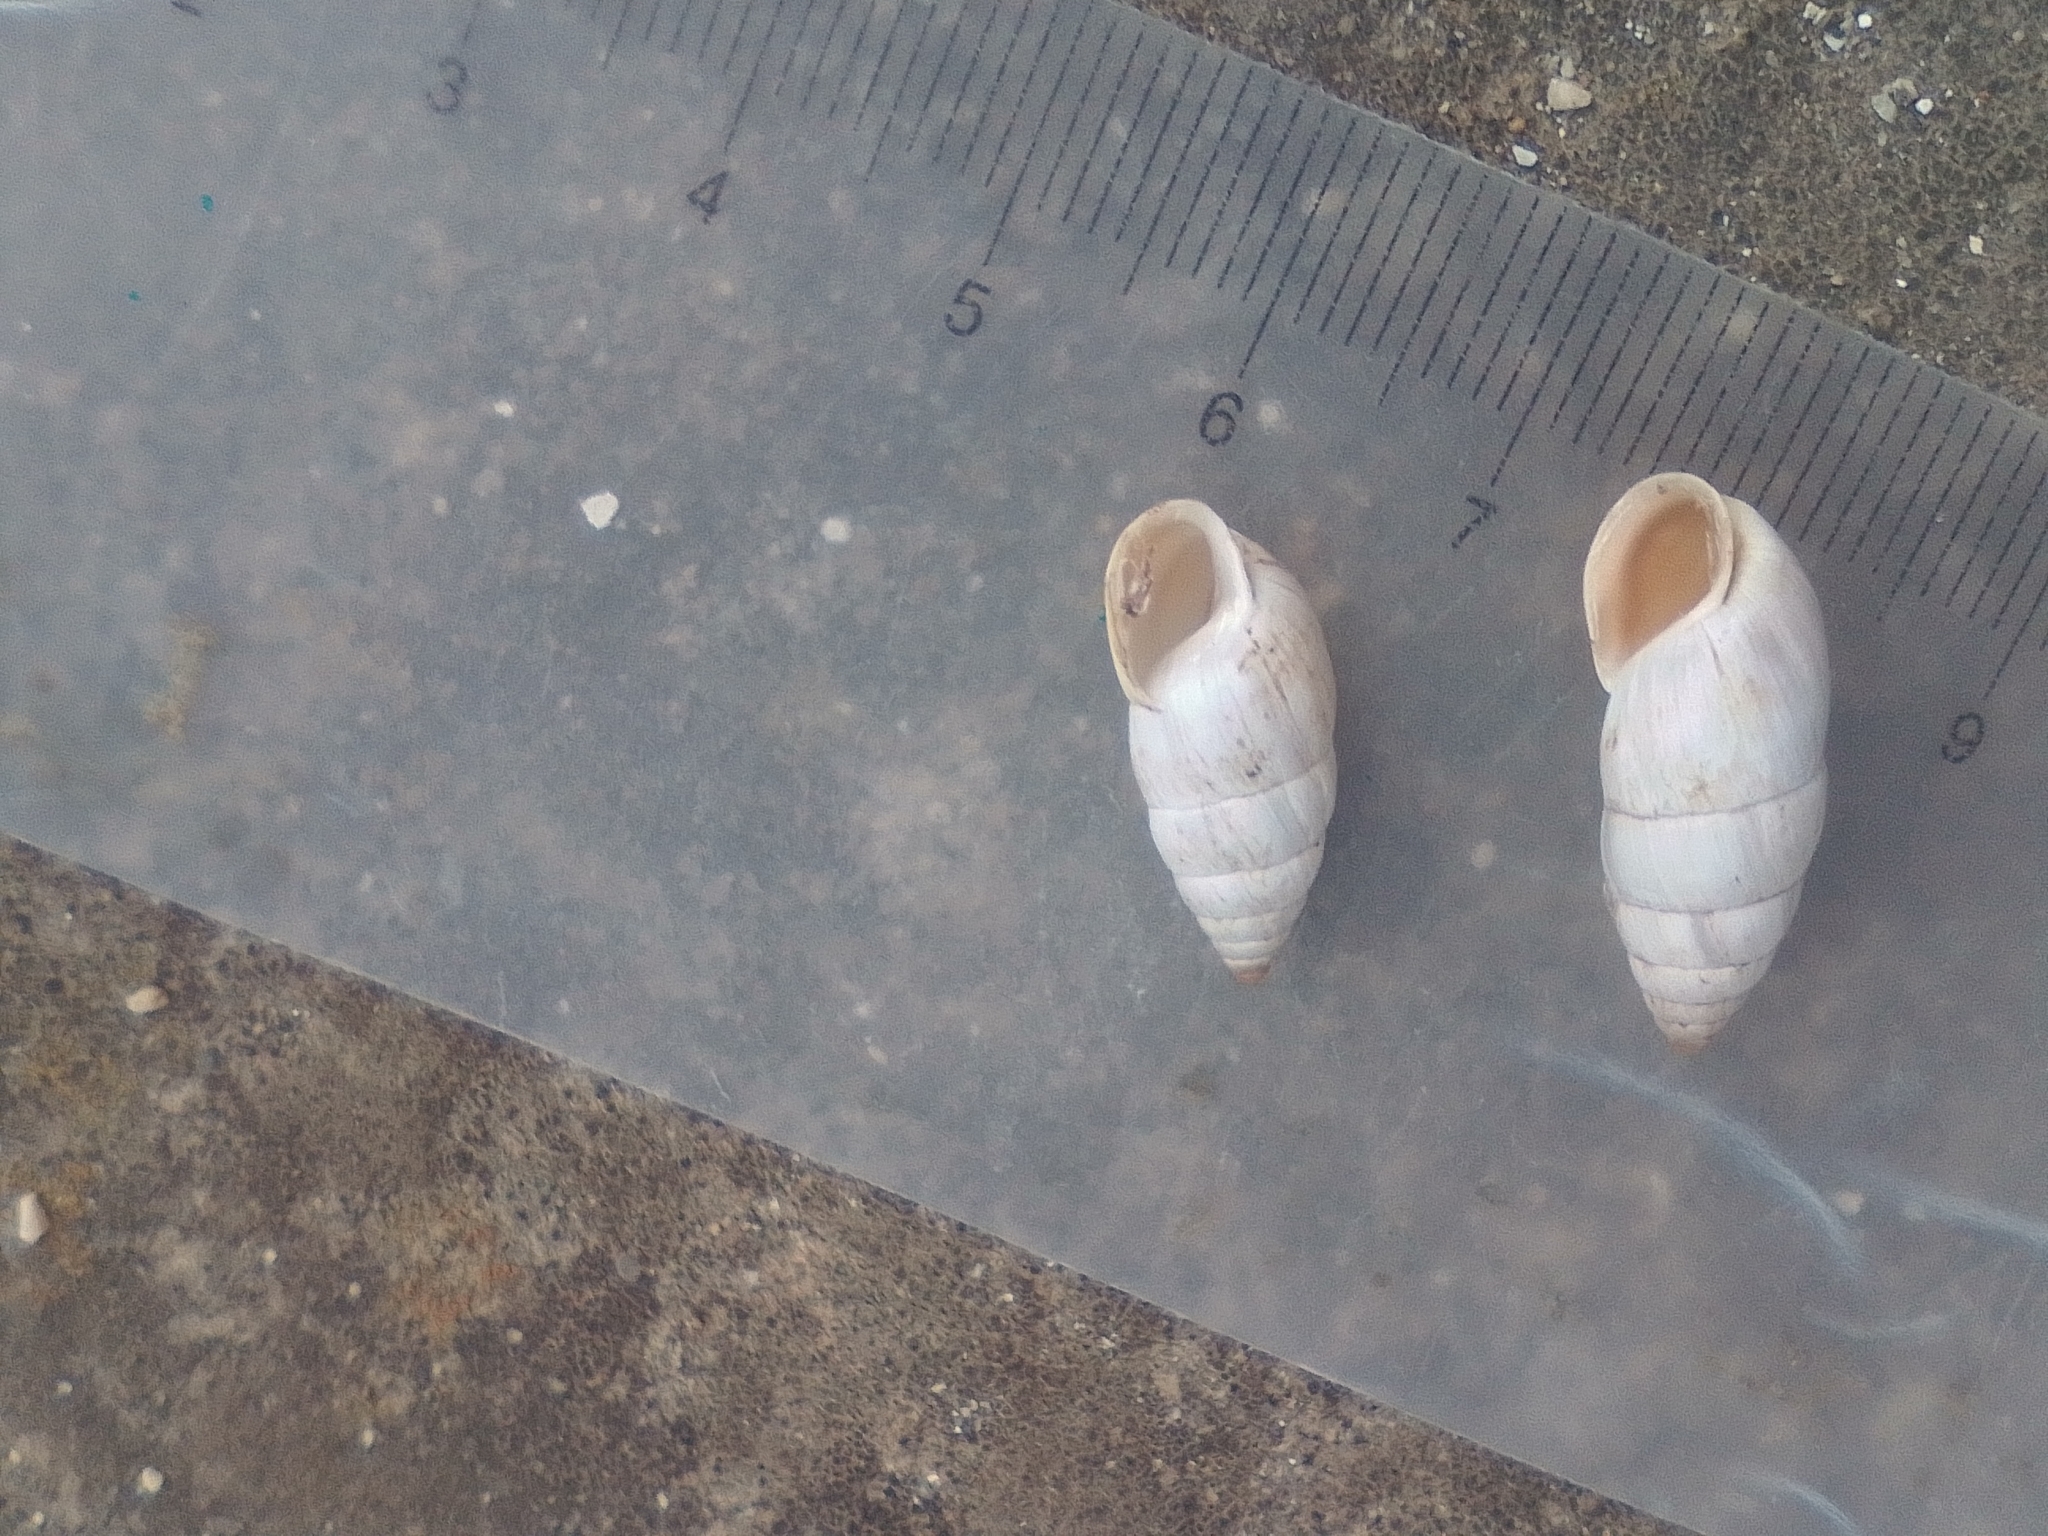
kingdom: Animalia
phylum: Mollusca
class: Gastropoda
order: Stylommatophora
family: Enidae
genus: Brephulopsis
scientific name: Brephulopsis cylindrica
